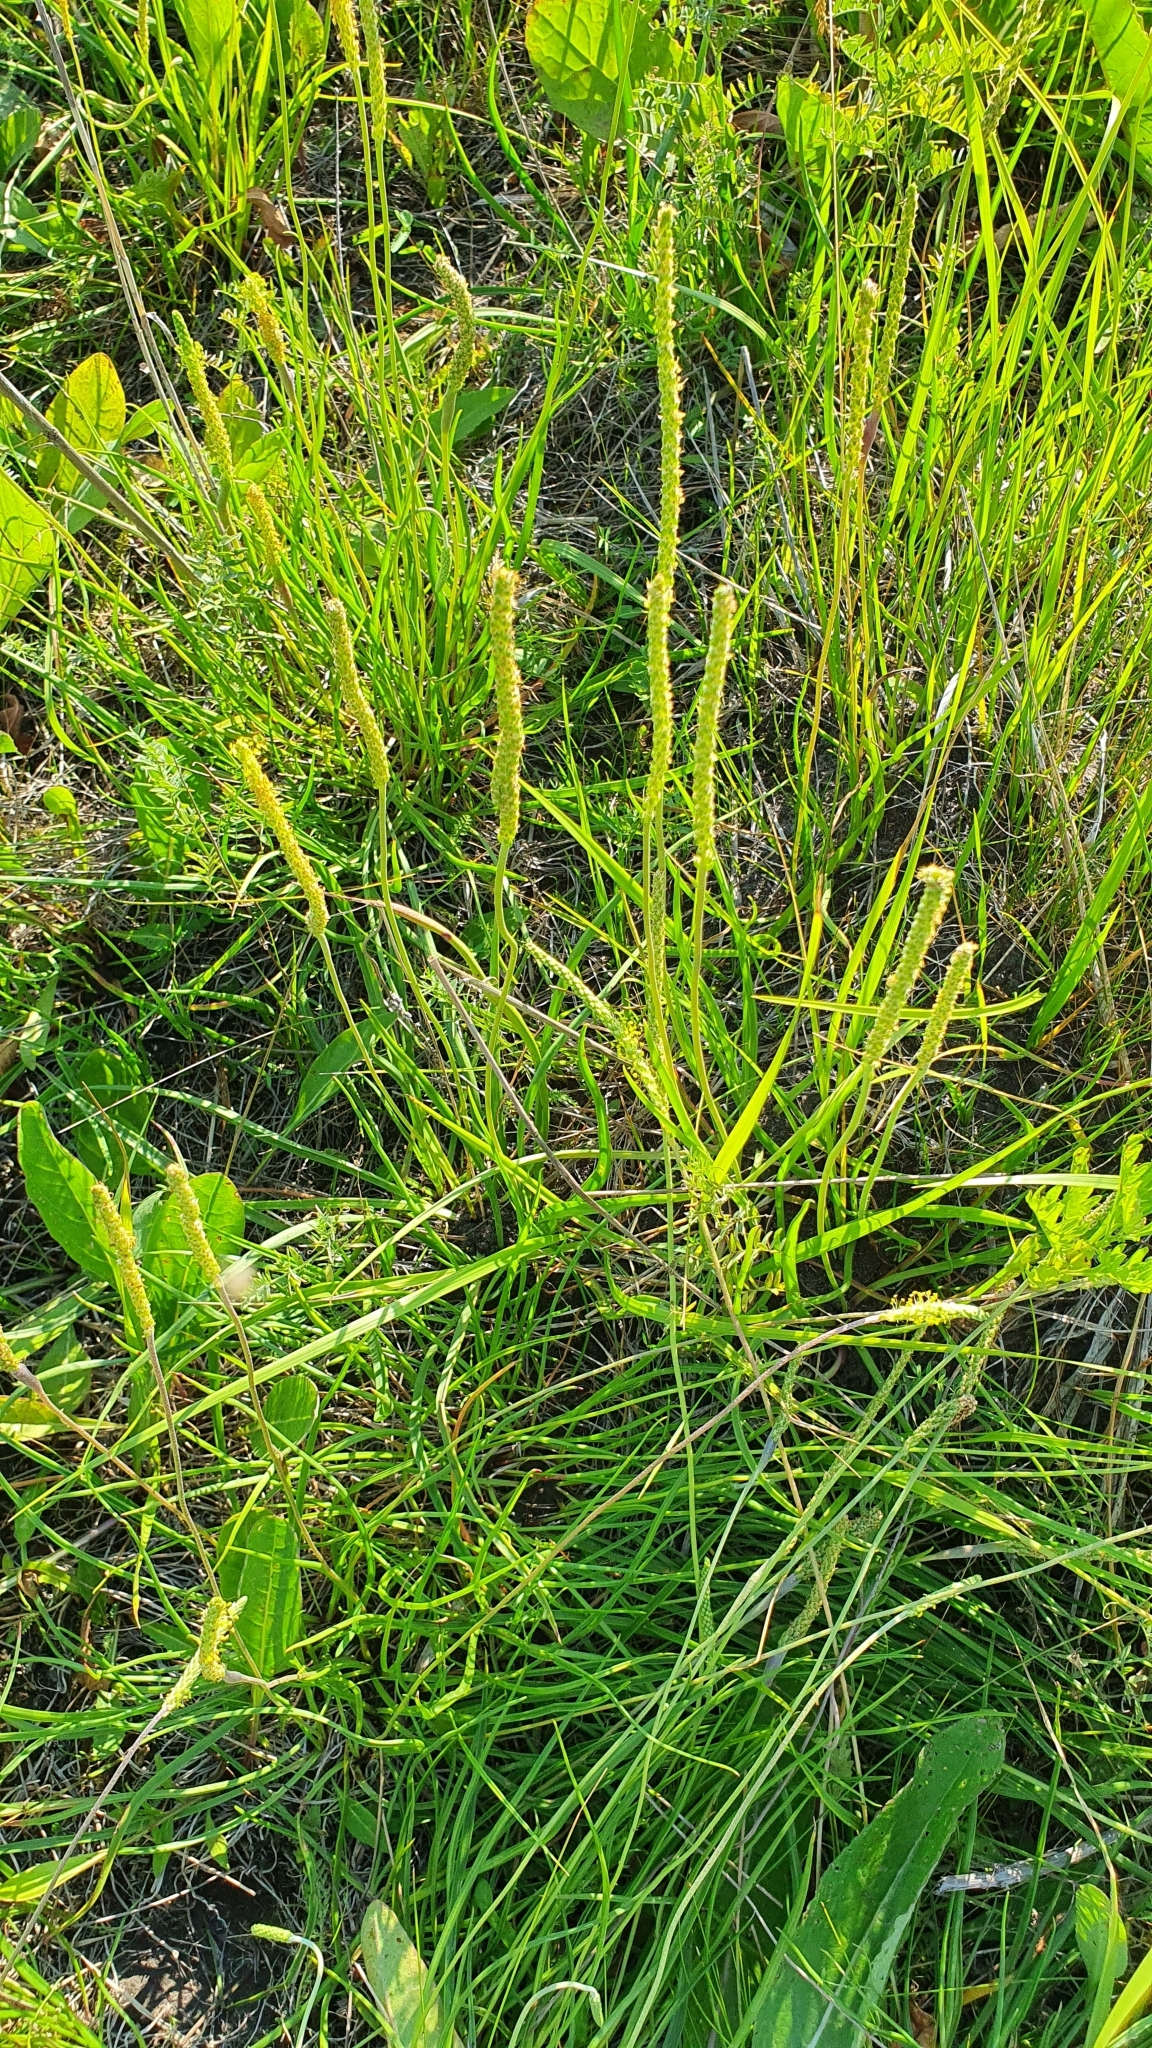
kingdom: Plantae
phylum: Tracheophyta
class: Magnoliopsida
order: Lamiales
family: Plantaginaceae
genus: Plantago
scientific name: Plantago salsa
